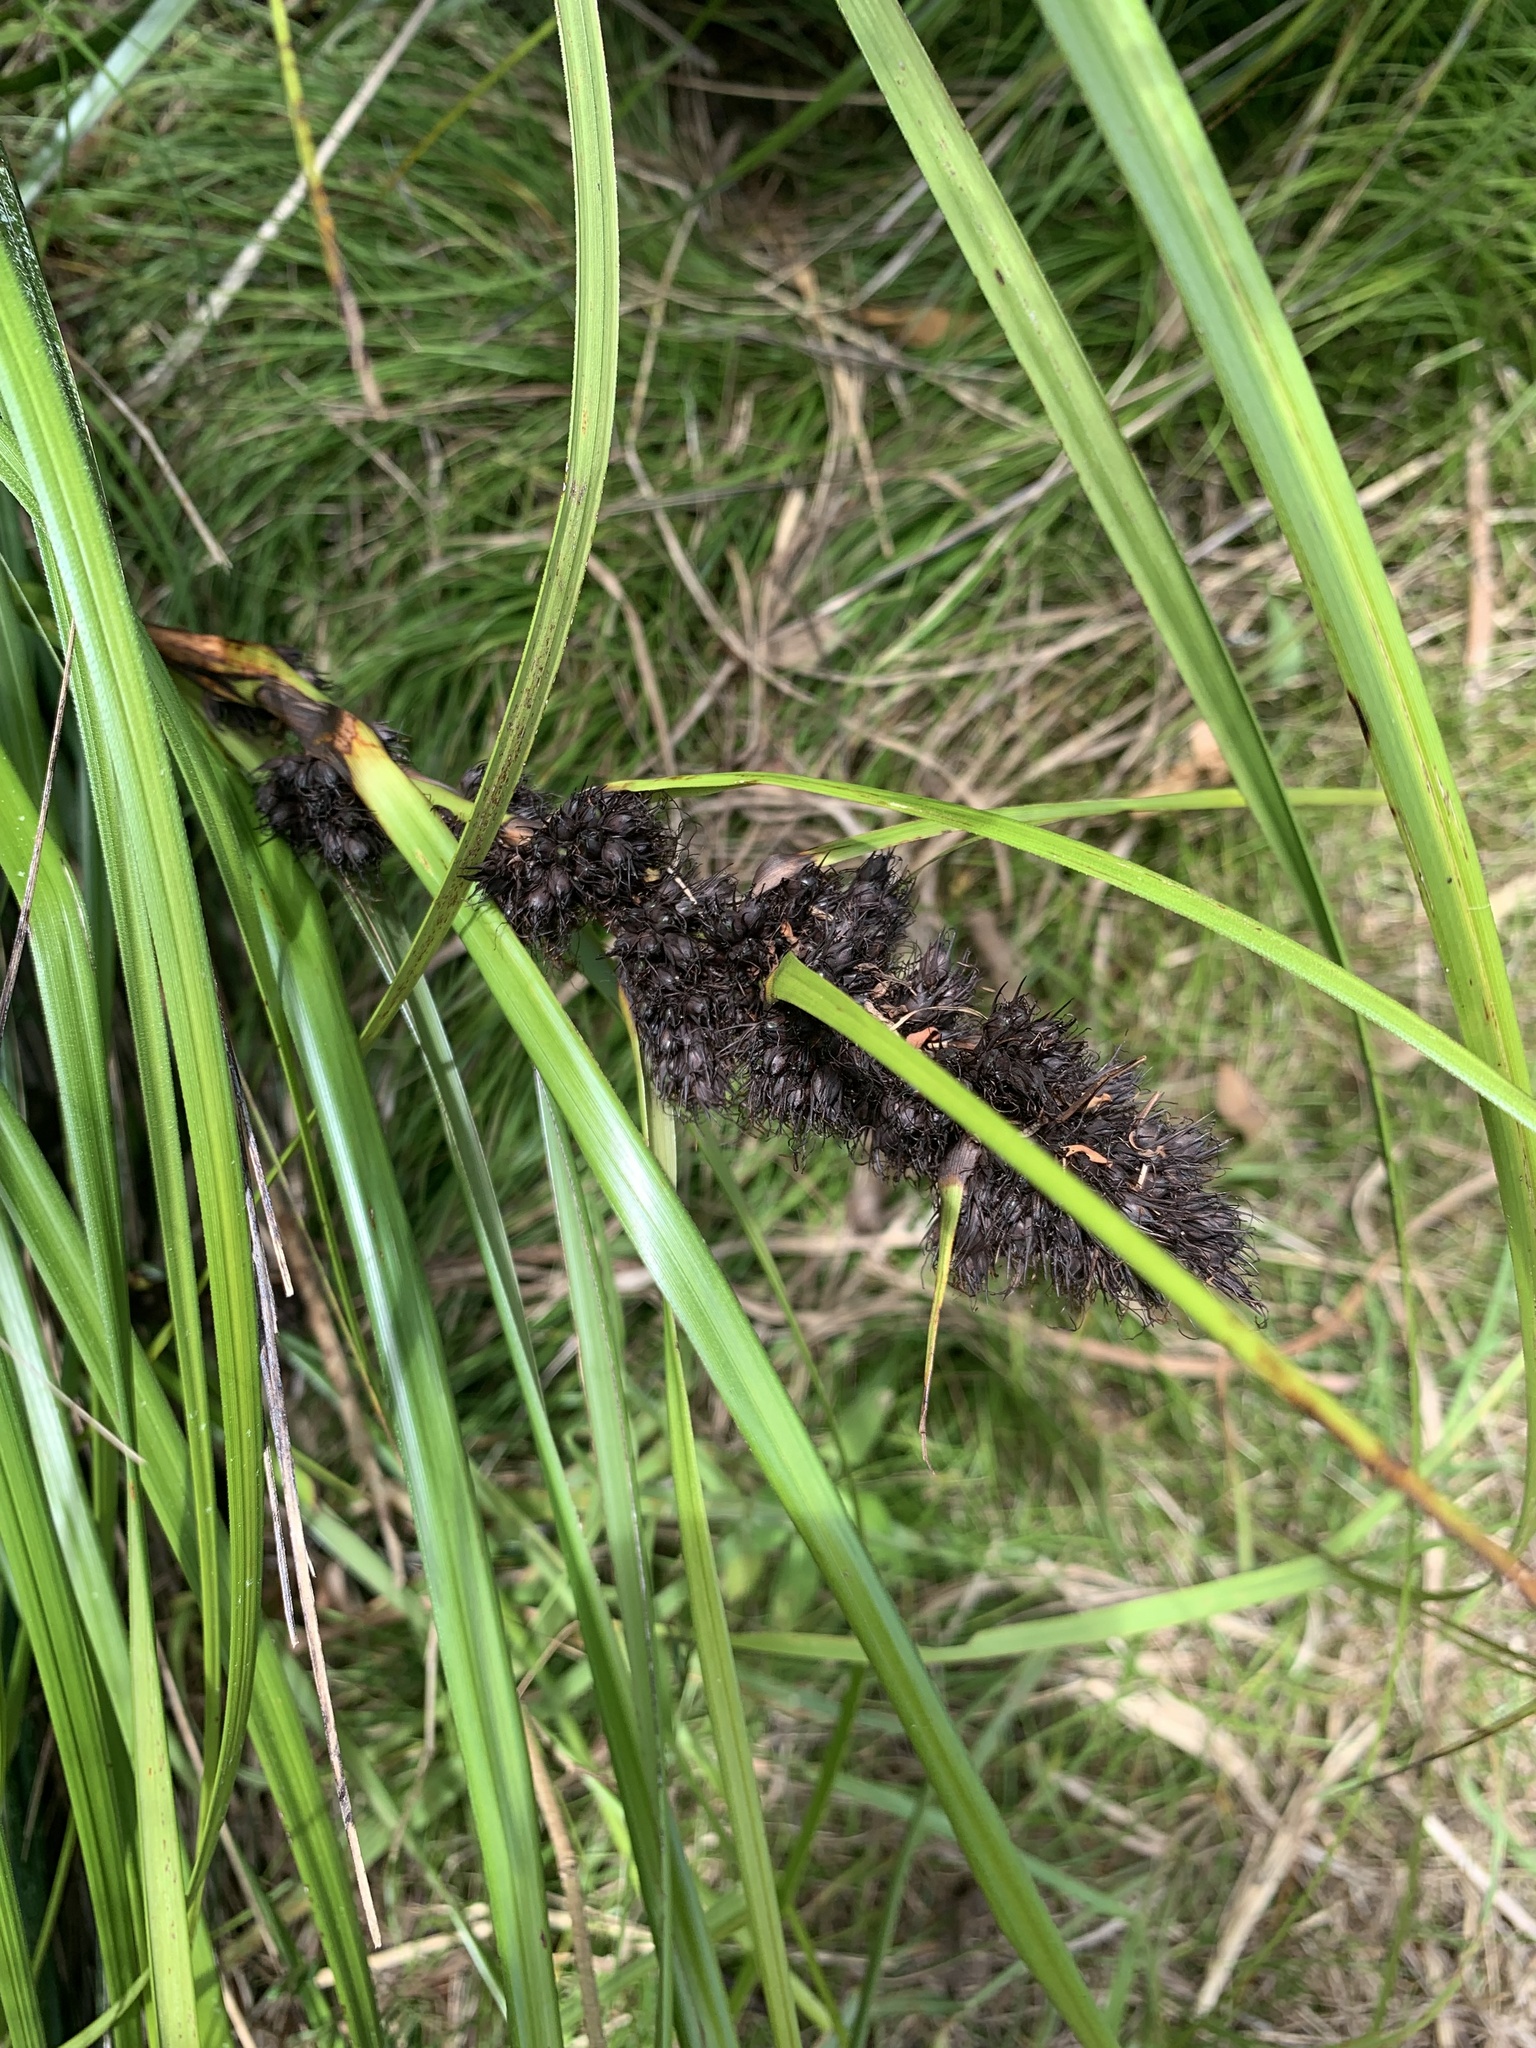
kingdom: Plantae
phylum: Tracheophyta
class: Liliopsida
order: Poales
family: Cyperaceae
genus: Gahnia
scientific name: Gahnia aspera
